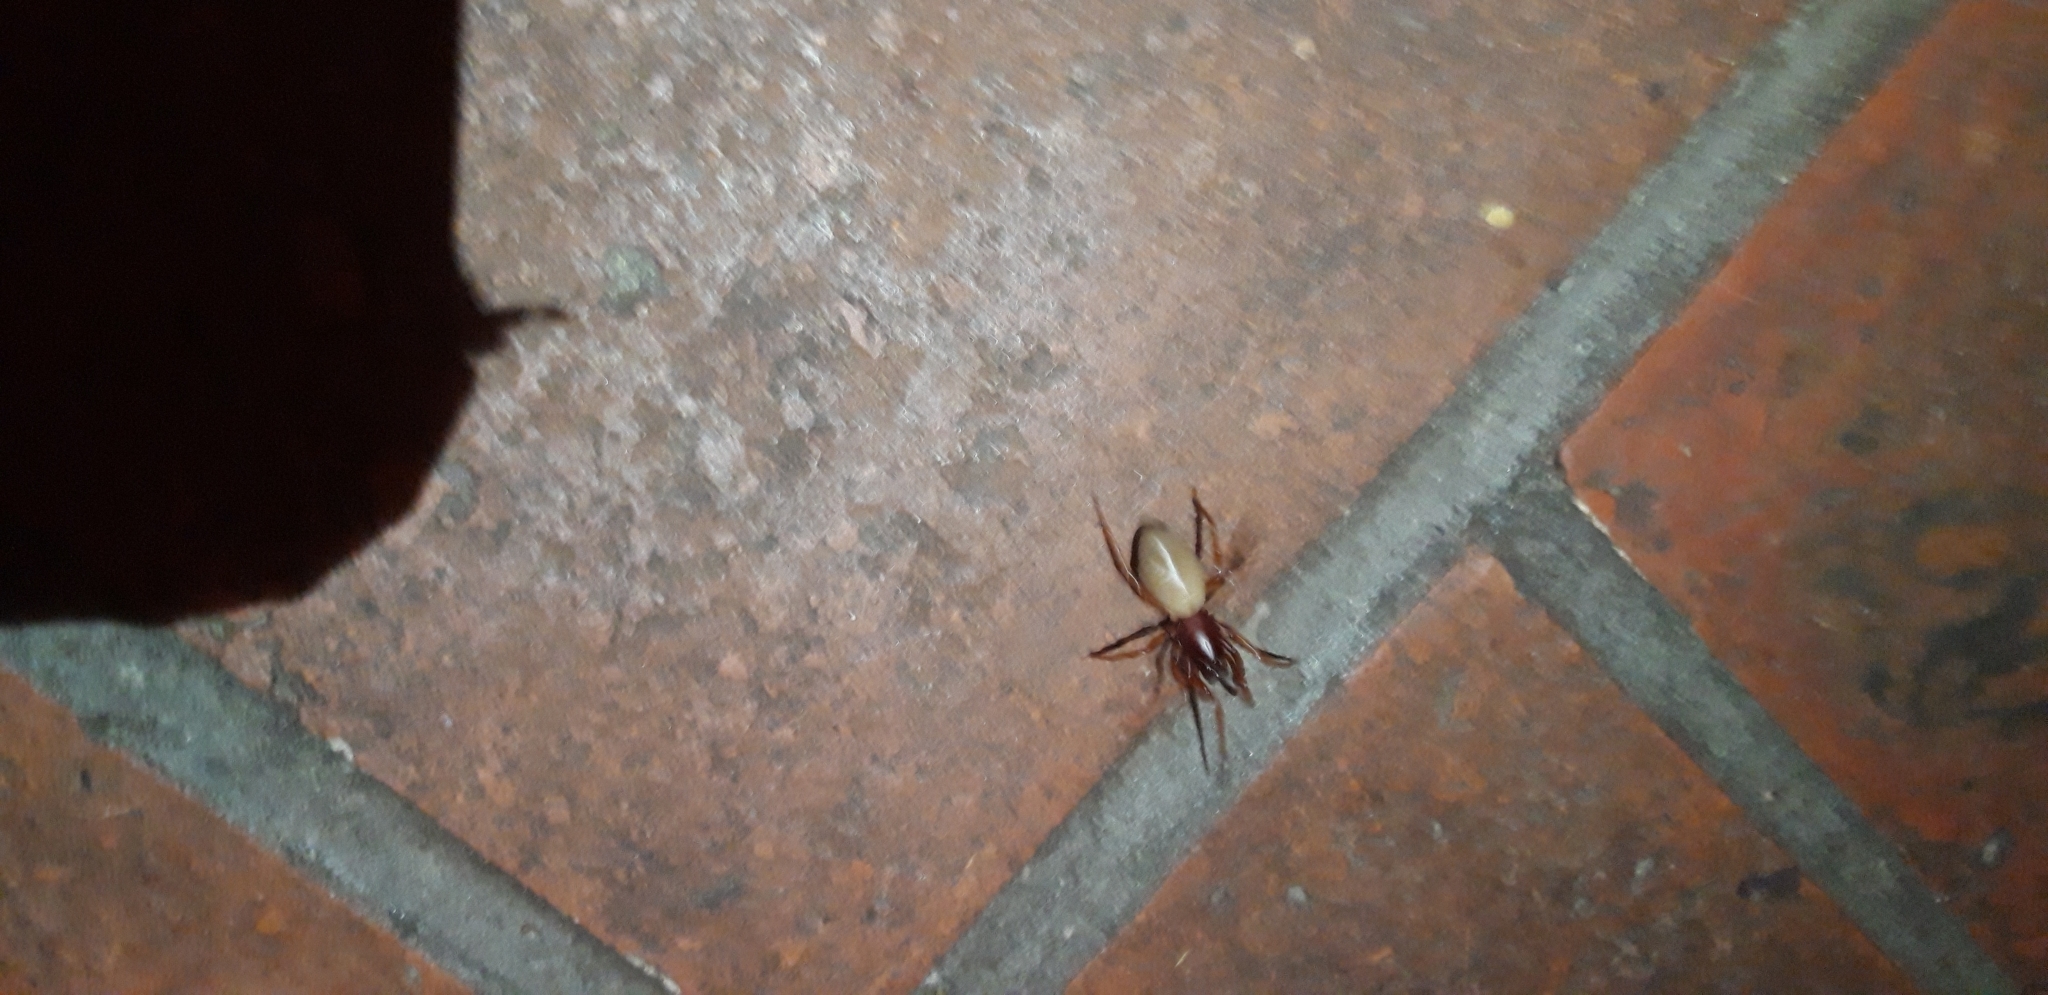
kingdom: Animalia
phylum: Arthropoda
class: Arachnida
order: Araneae
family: Dysderidae
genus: Dysdera
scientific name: Dysdera crocata
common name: Woodlouse spider
